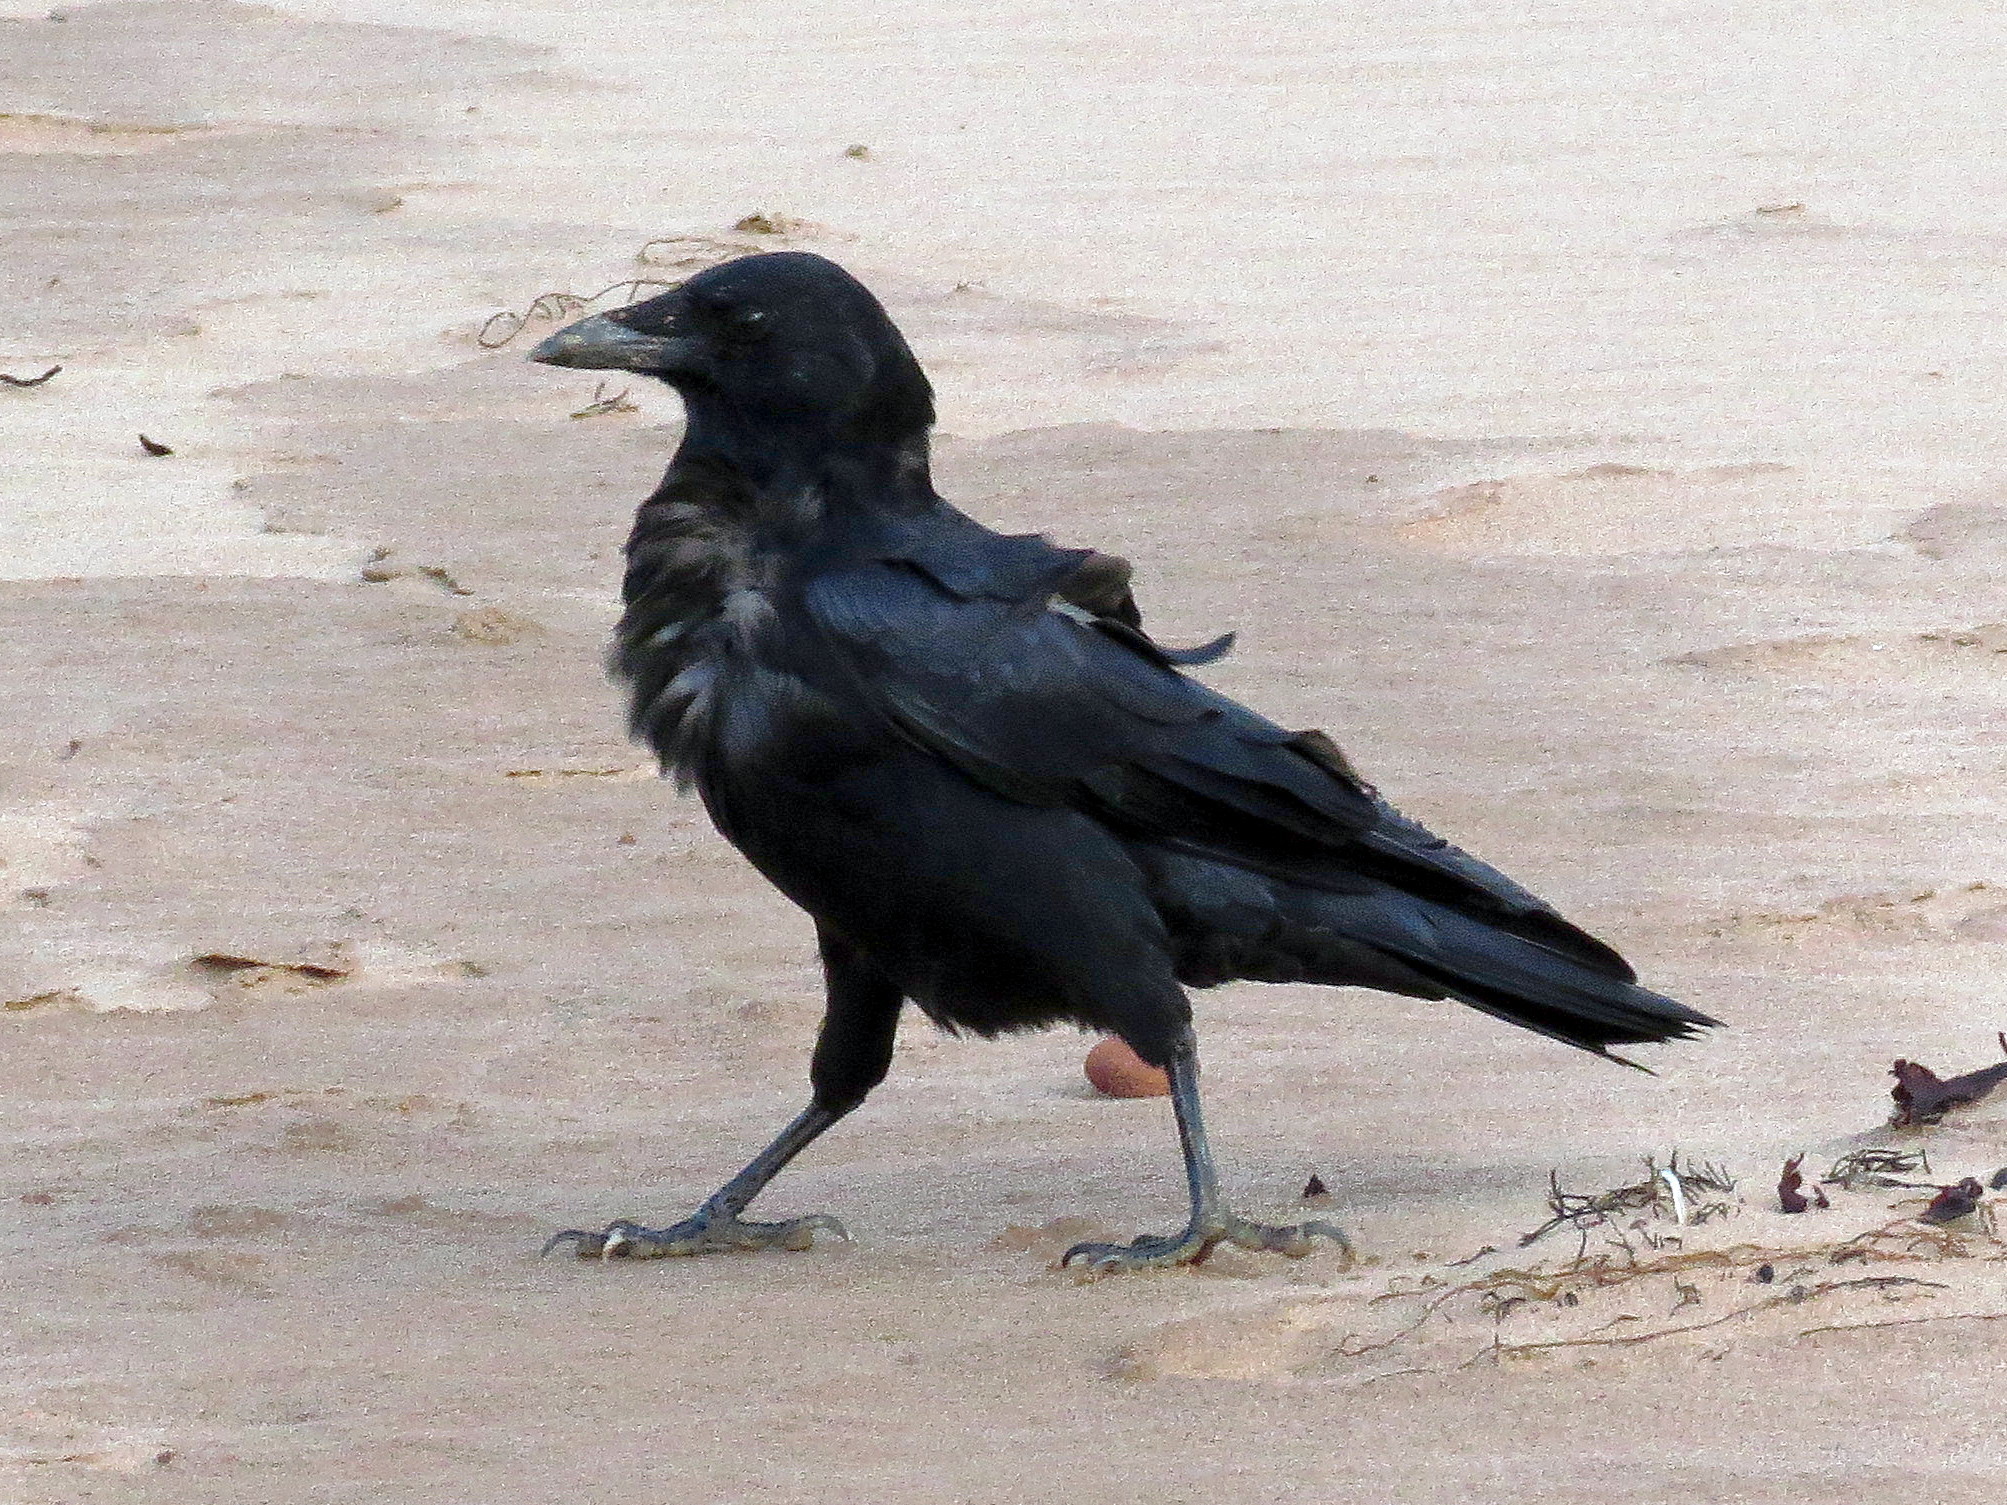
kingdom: Animalia
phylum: Chordata
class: Aves
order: Passeriformes
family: Corvidae
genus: Corvus
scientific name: Corvus brachyrhynchos
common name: American crow
